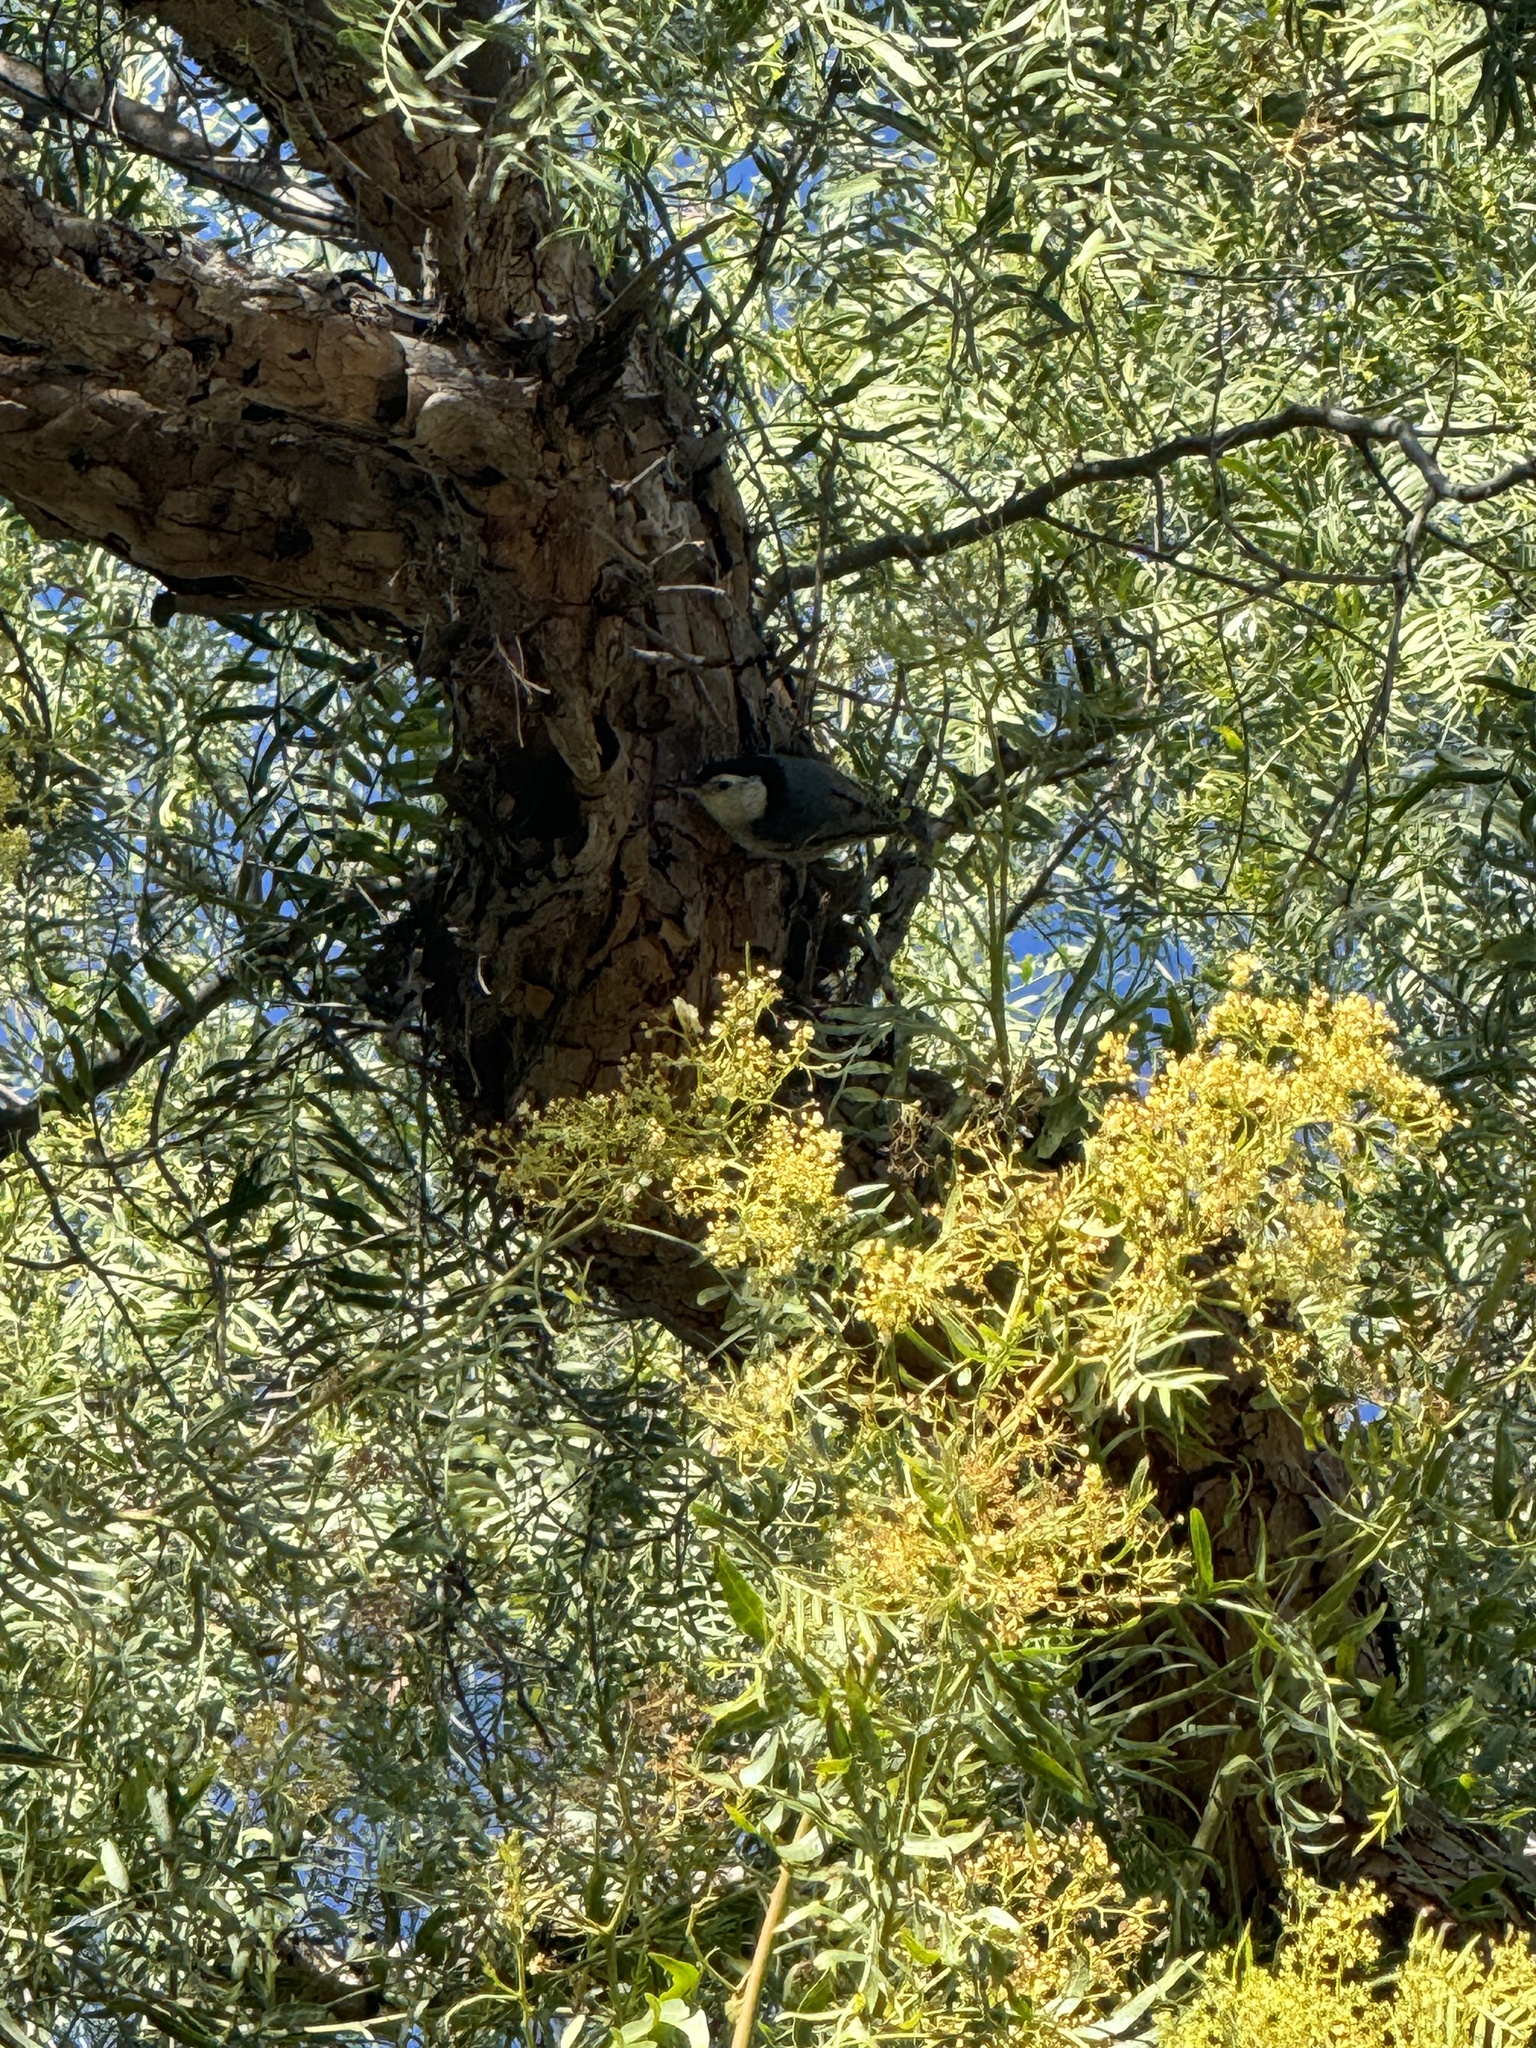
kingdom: Animalia
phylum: Chordata
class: Aves
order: Passeriformes
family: Sittidae
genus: Sitta
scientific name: Sitta carolinensis
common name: White-breasted nuthatch
